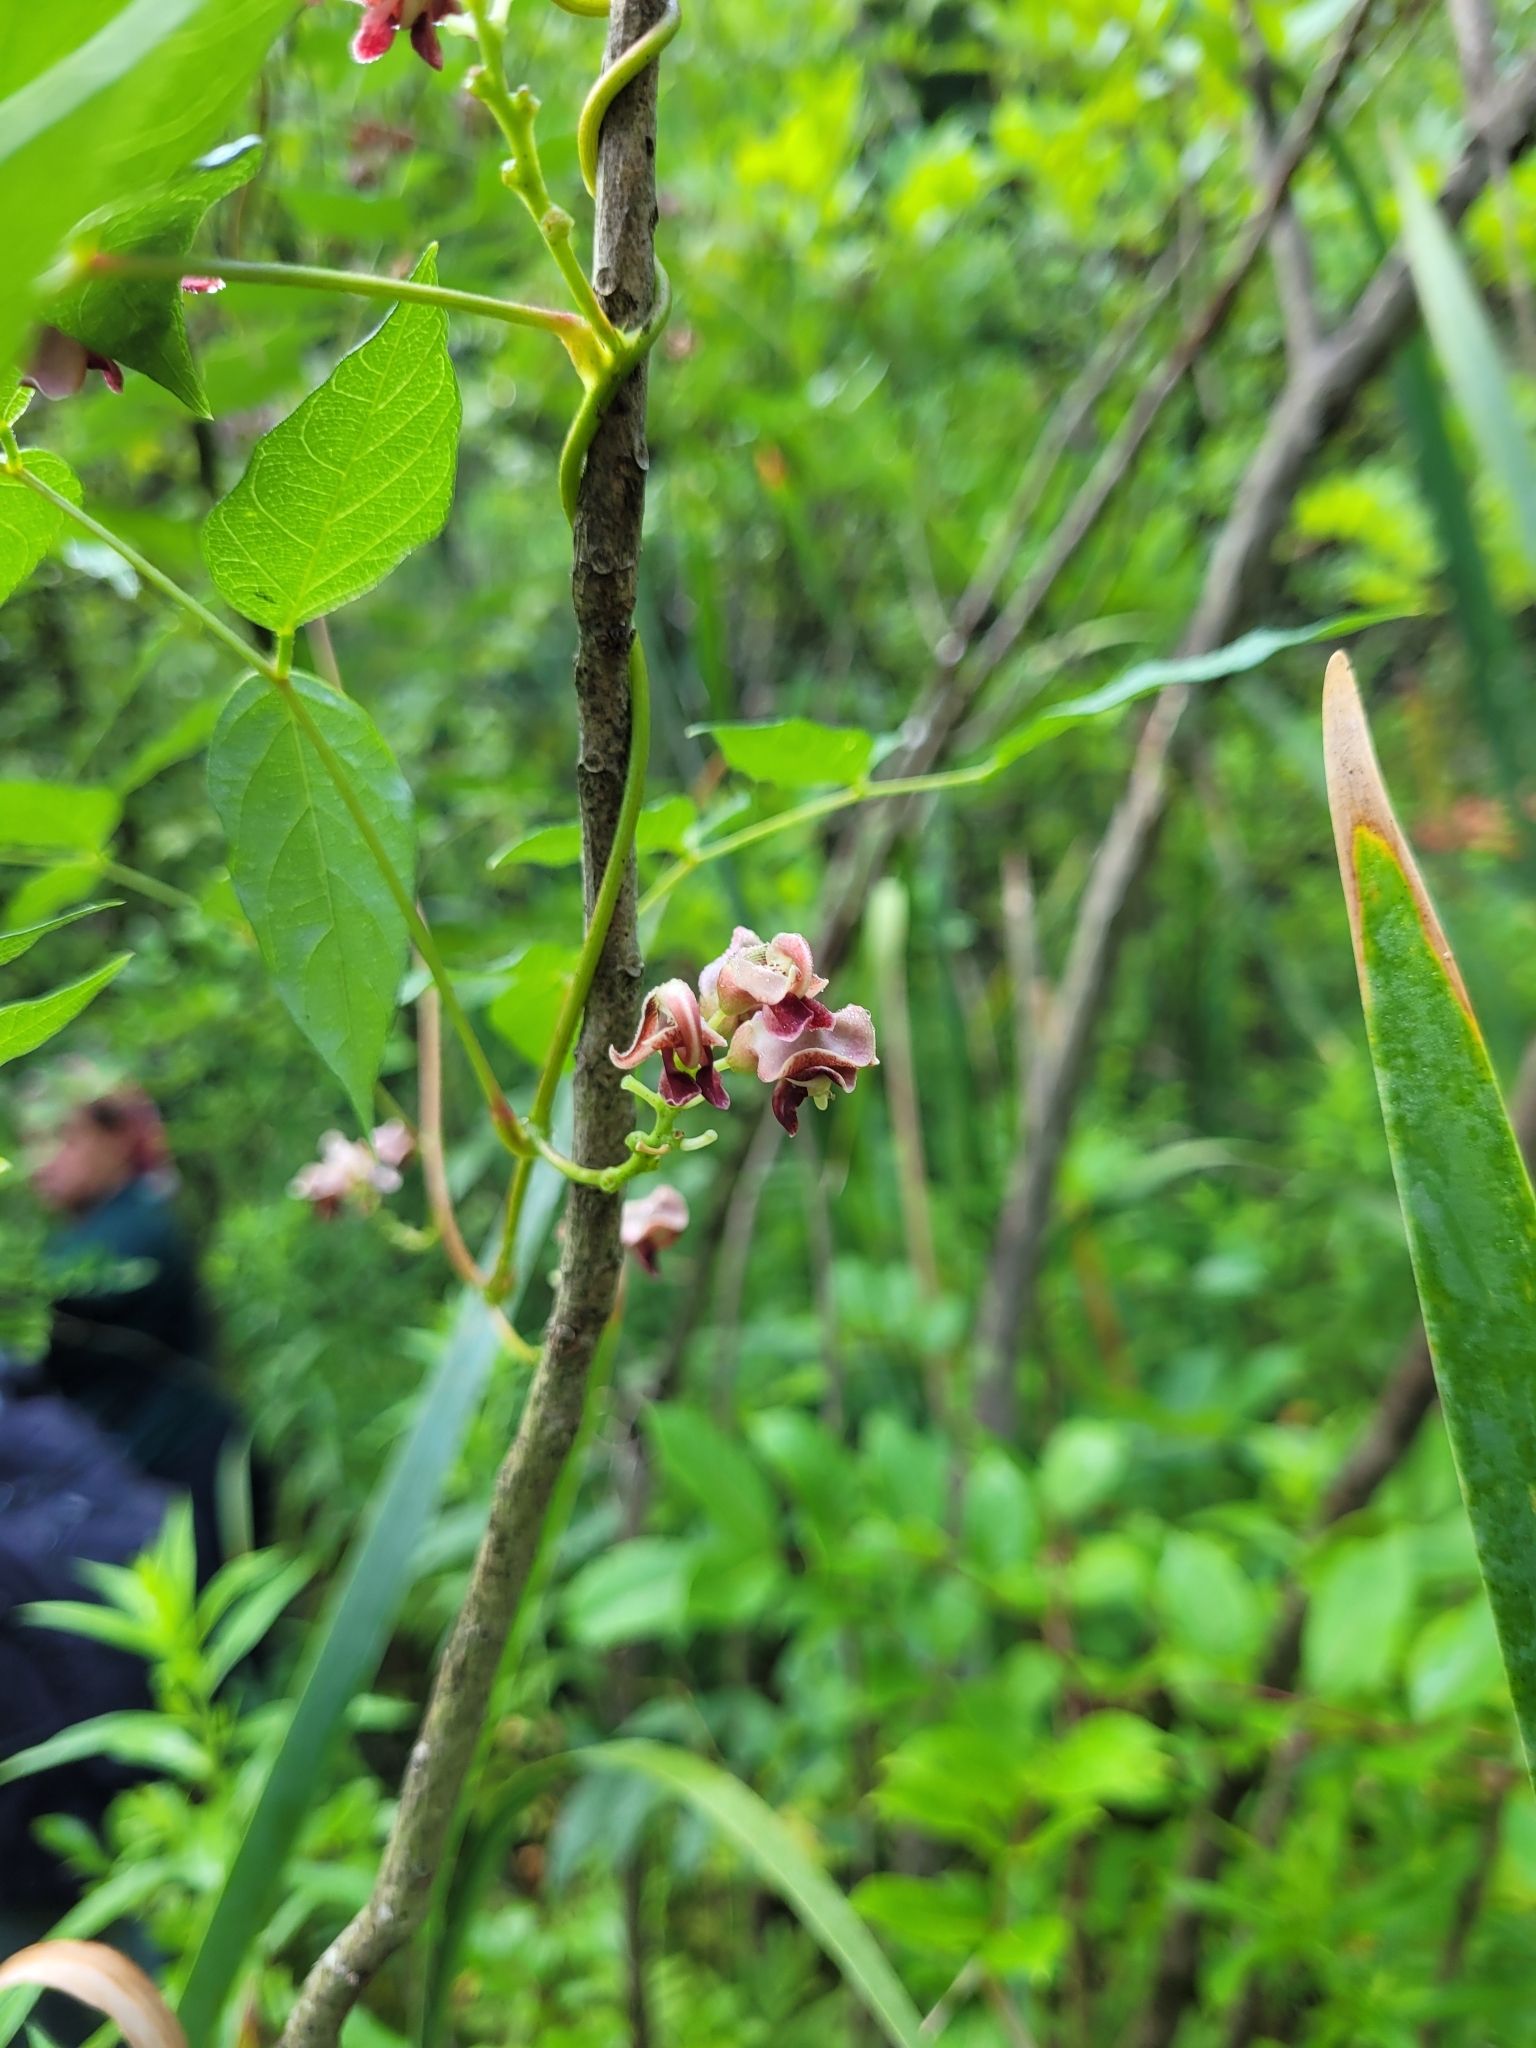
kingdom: Plantae
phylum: Tracheophyta
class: Magnoliopsida
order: Fabales
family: Fabaceae
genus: Apios
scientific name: Apios americana
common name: American potato-bean
